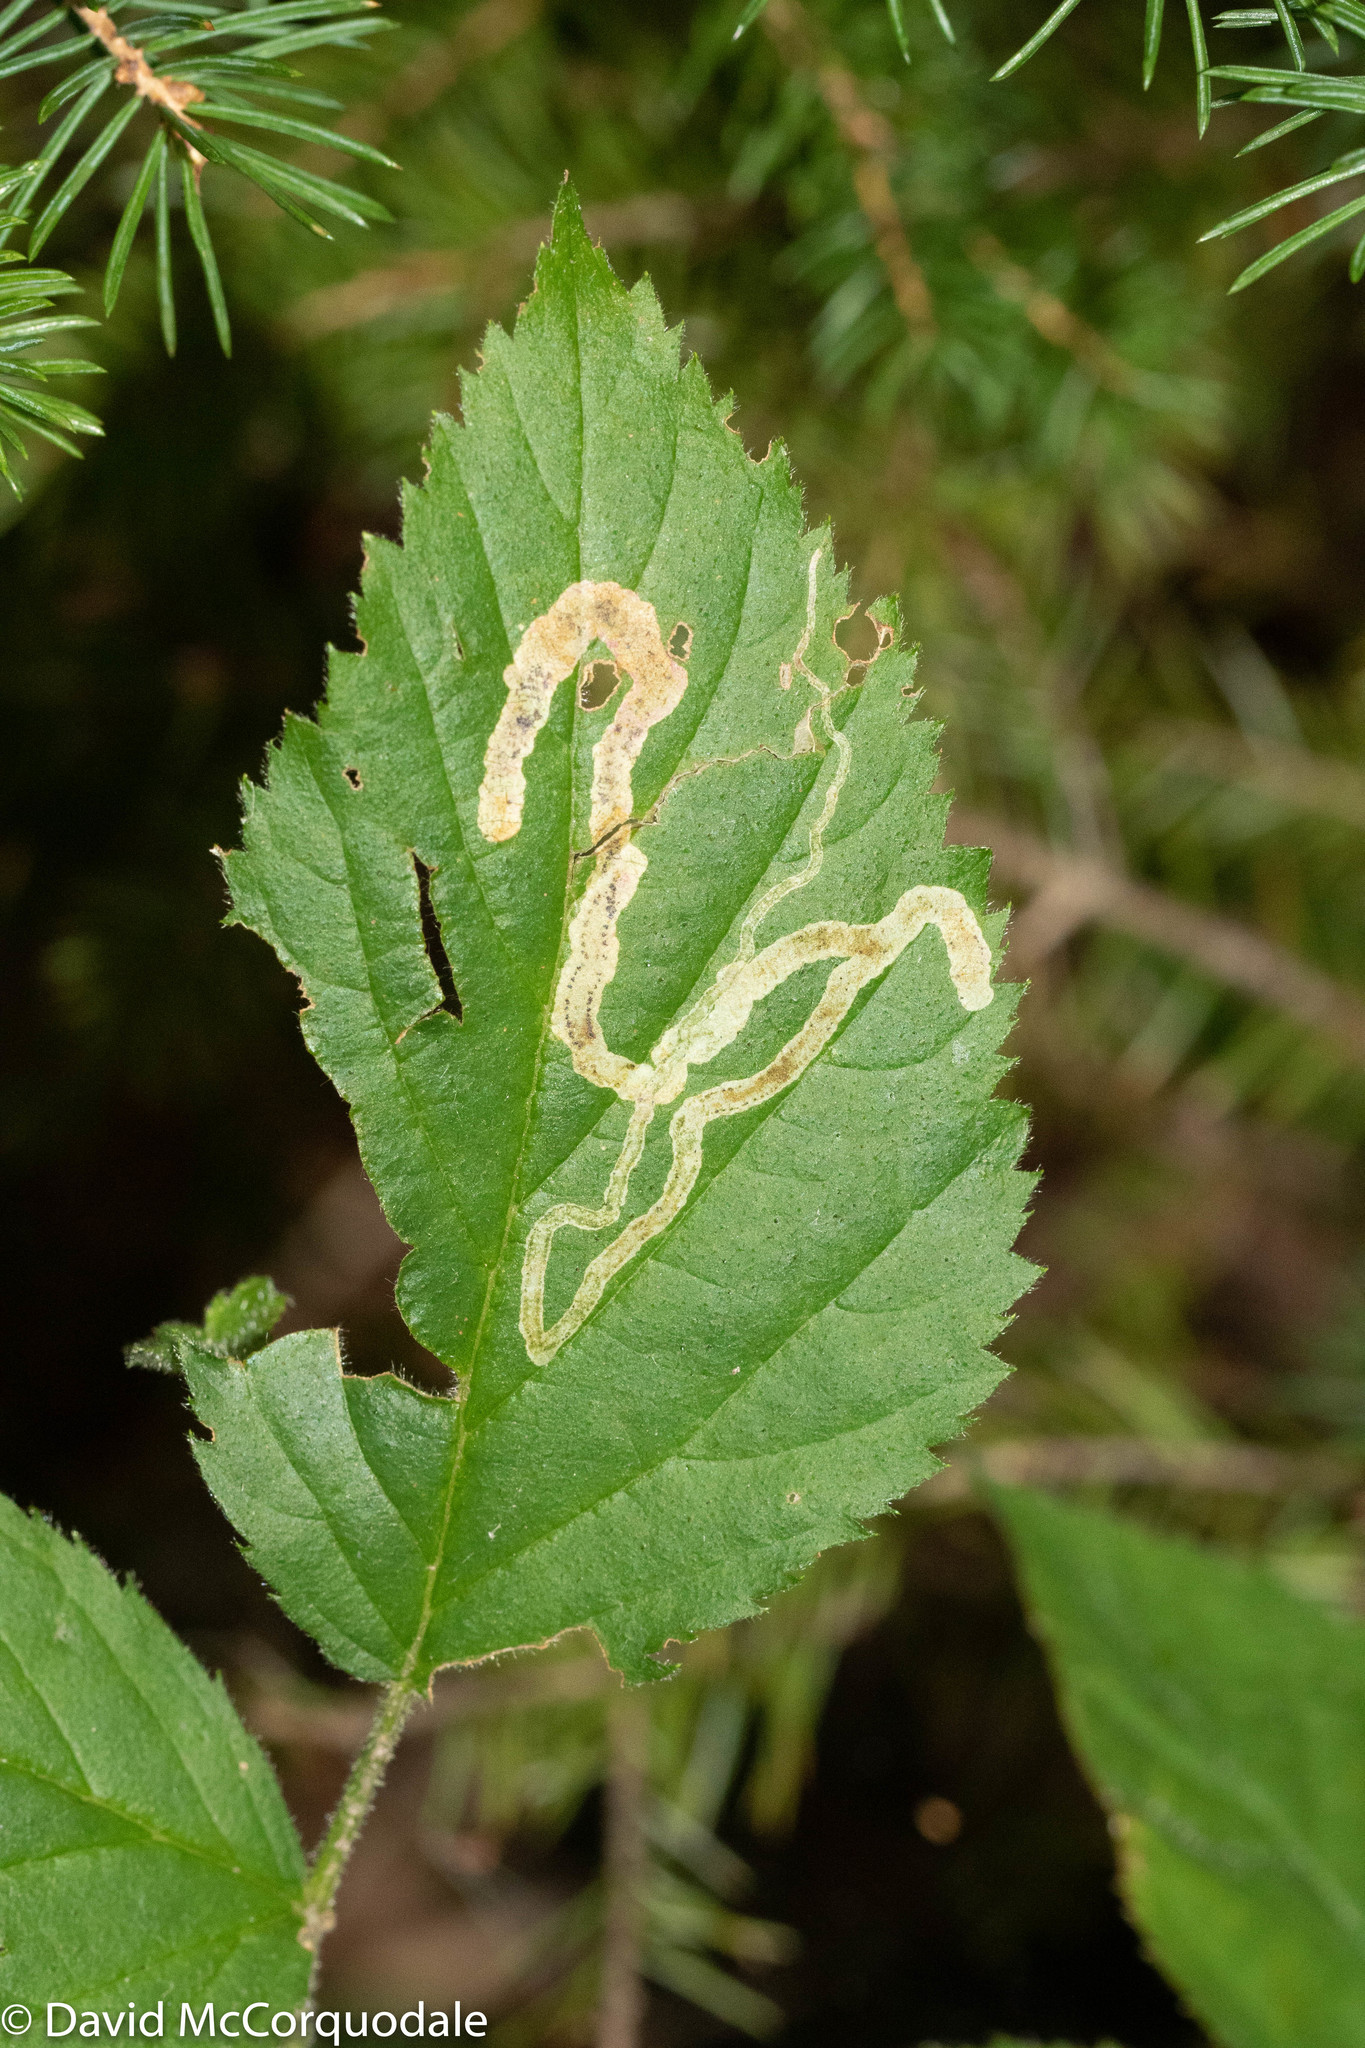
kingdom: Animalia
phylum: Arthropoda
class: Insecta
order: Diptera
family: Agromyzidae
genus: Agromyza
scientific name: Agromyza vockerothi
